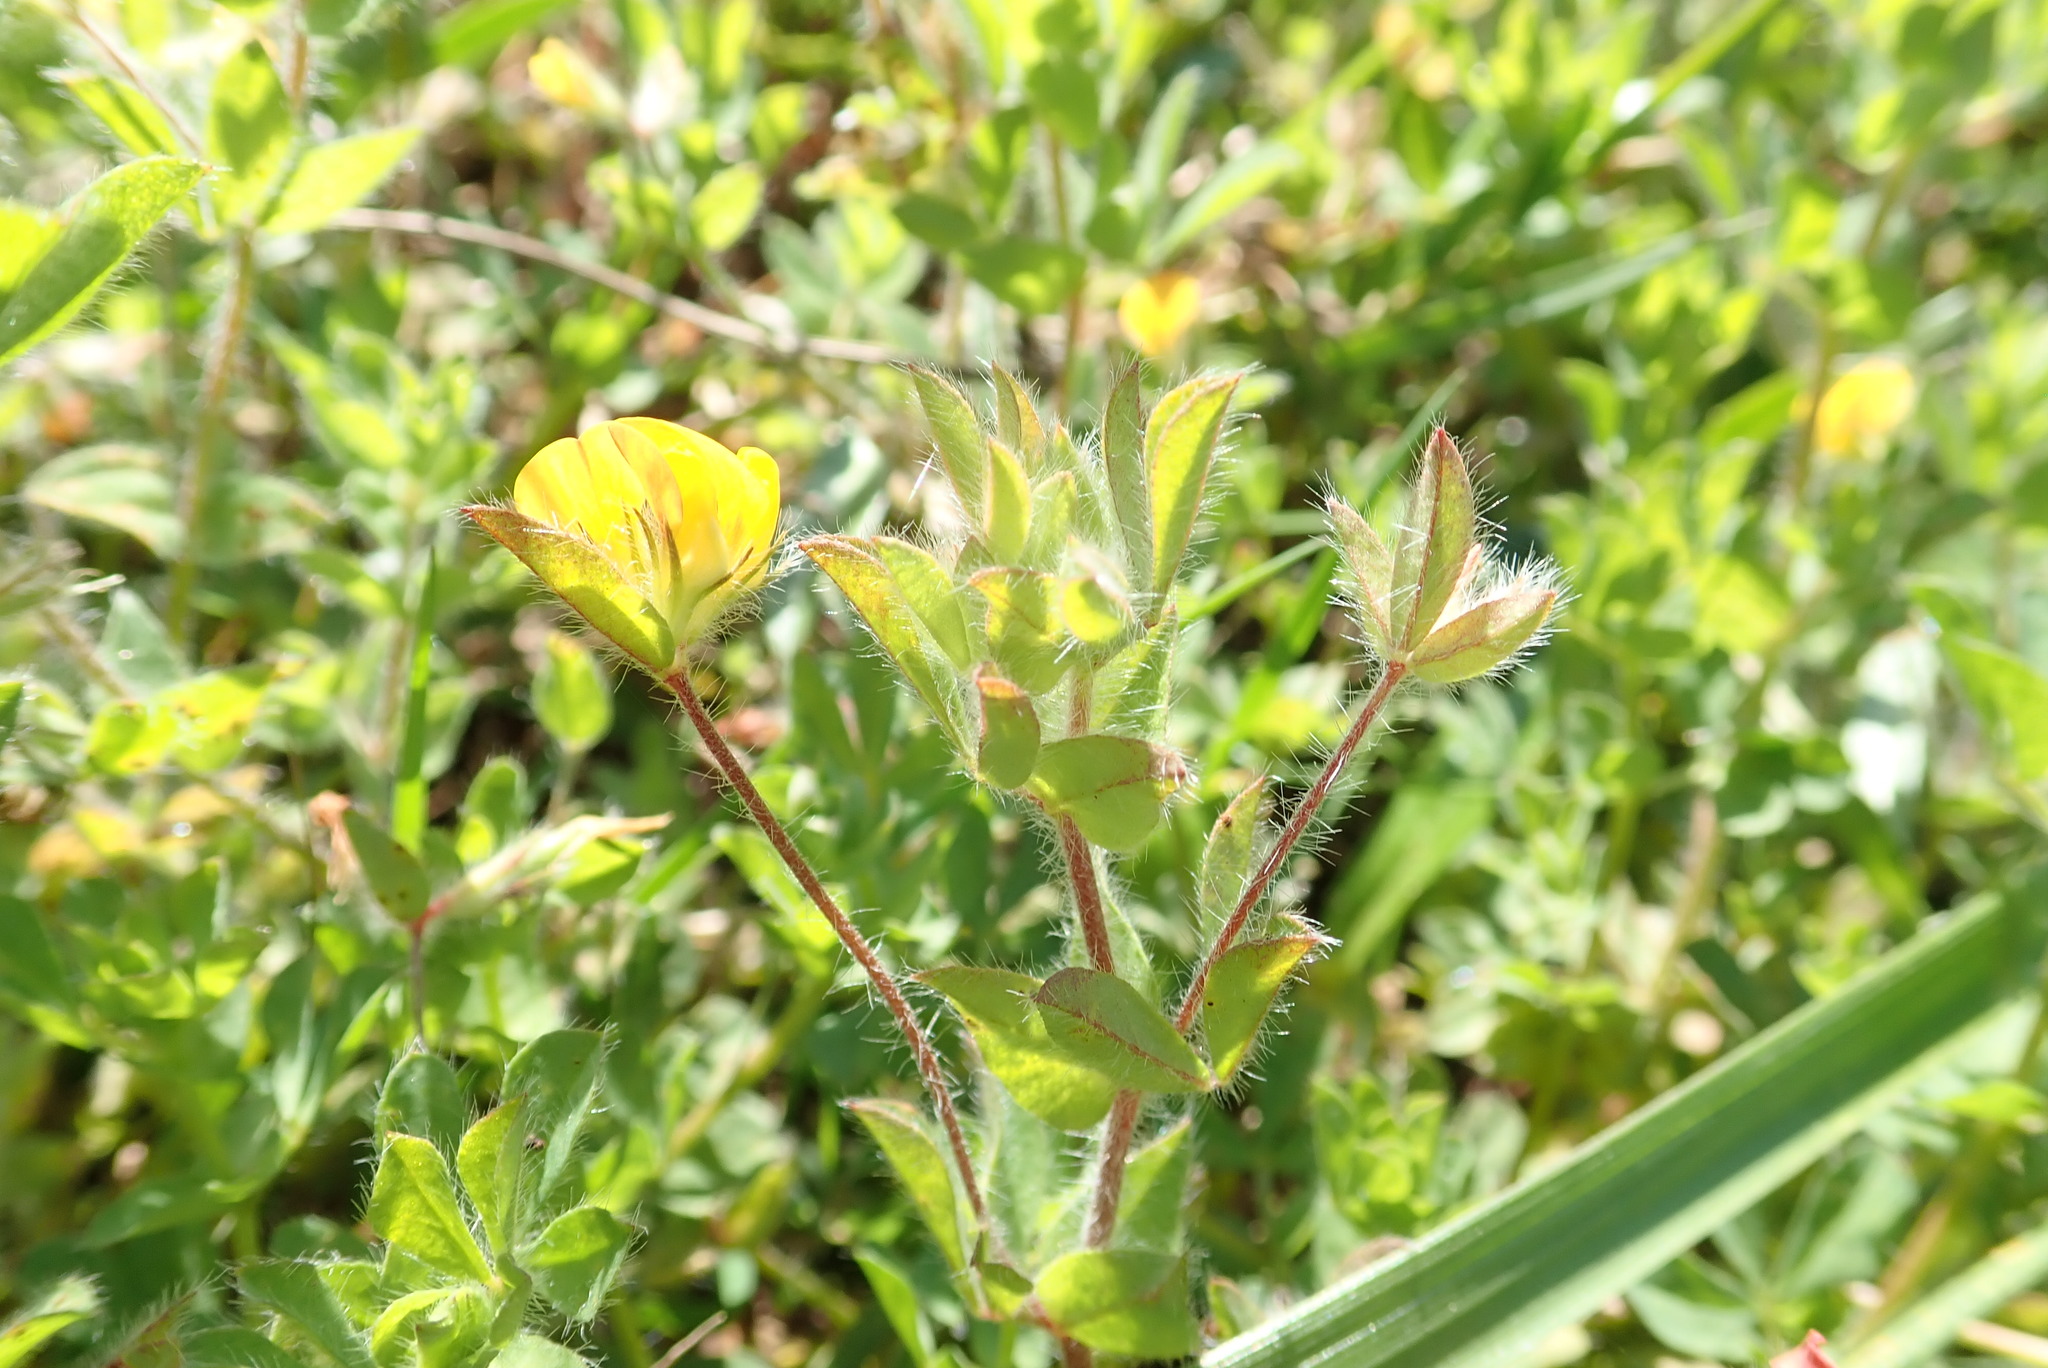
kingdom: Plantae
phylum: Tracheophyta
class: Magnoliopsida
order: Fabales
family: Fabaceae
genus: Lotus
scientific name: Lotus subbiflorus
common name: Hairy bird's-foot trefoil
